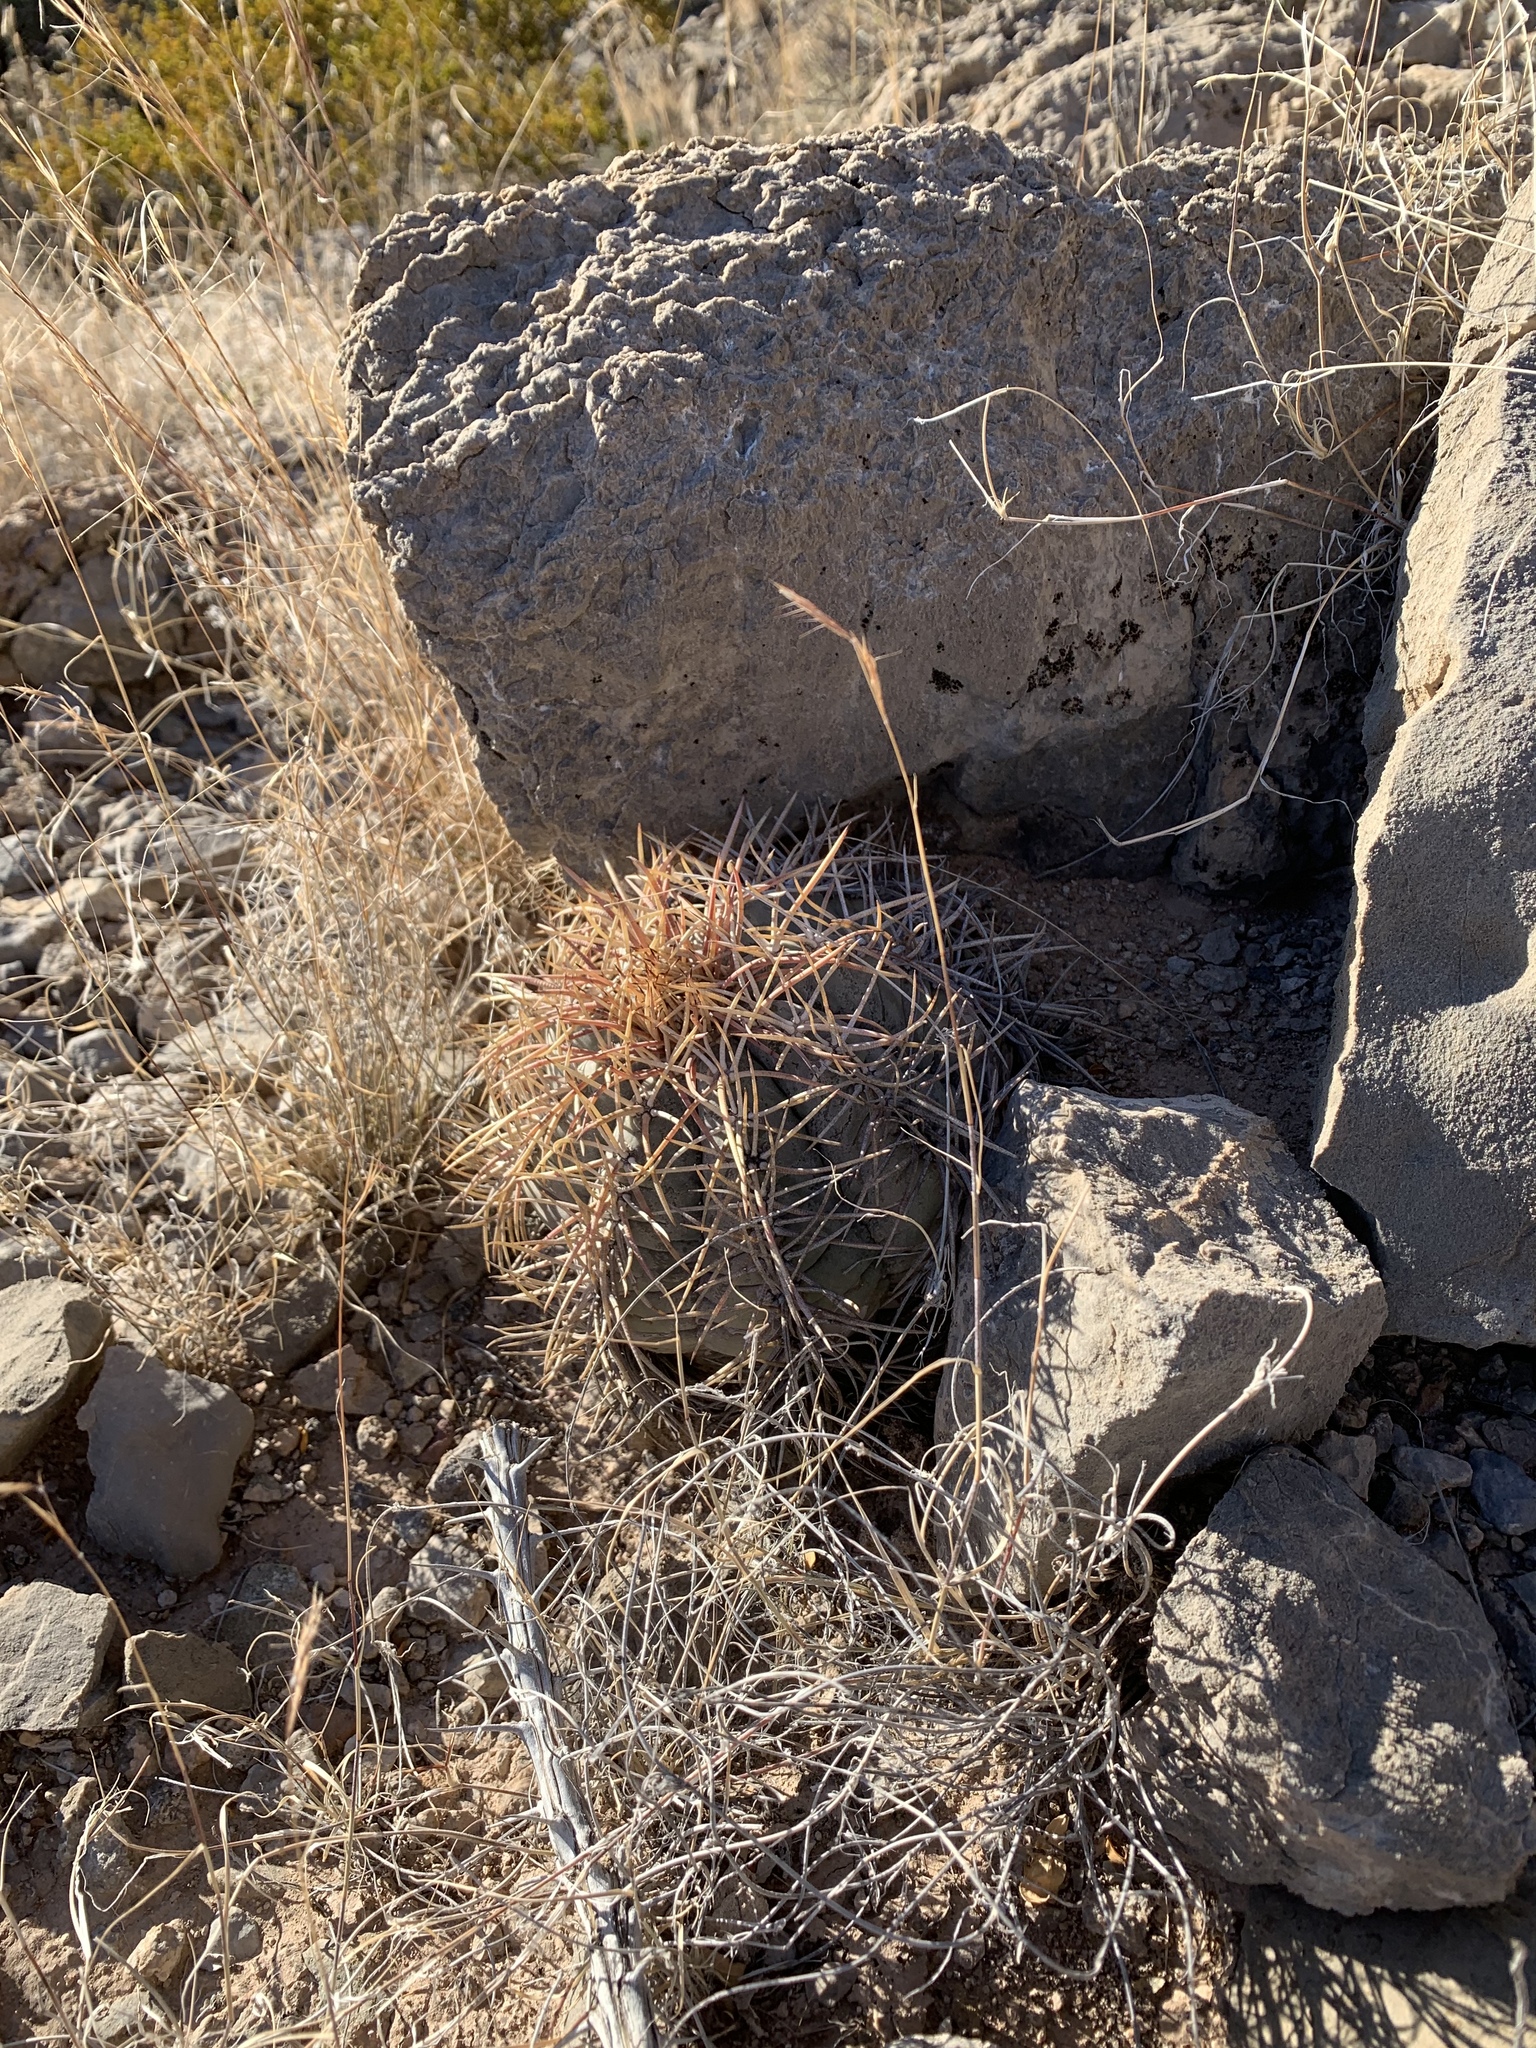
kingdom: Plantae
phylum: Tracheophyta
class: Magnoliopsida
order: Caryophyllales
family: Cactaceae
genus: Echinocactus
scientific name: Echinocactus horizonthalonius
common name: Devilshead
